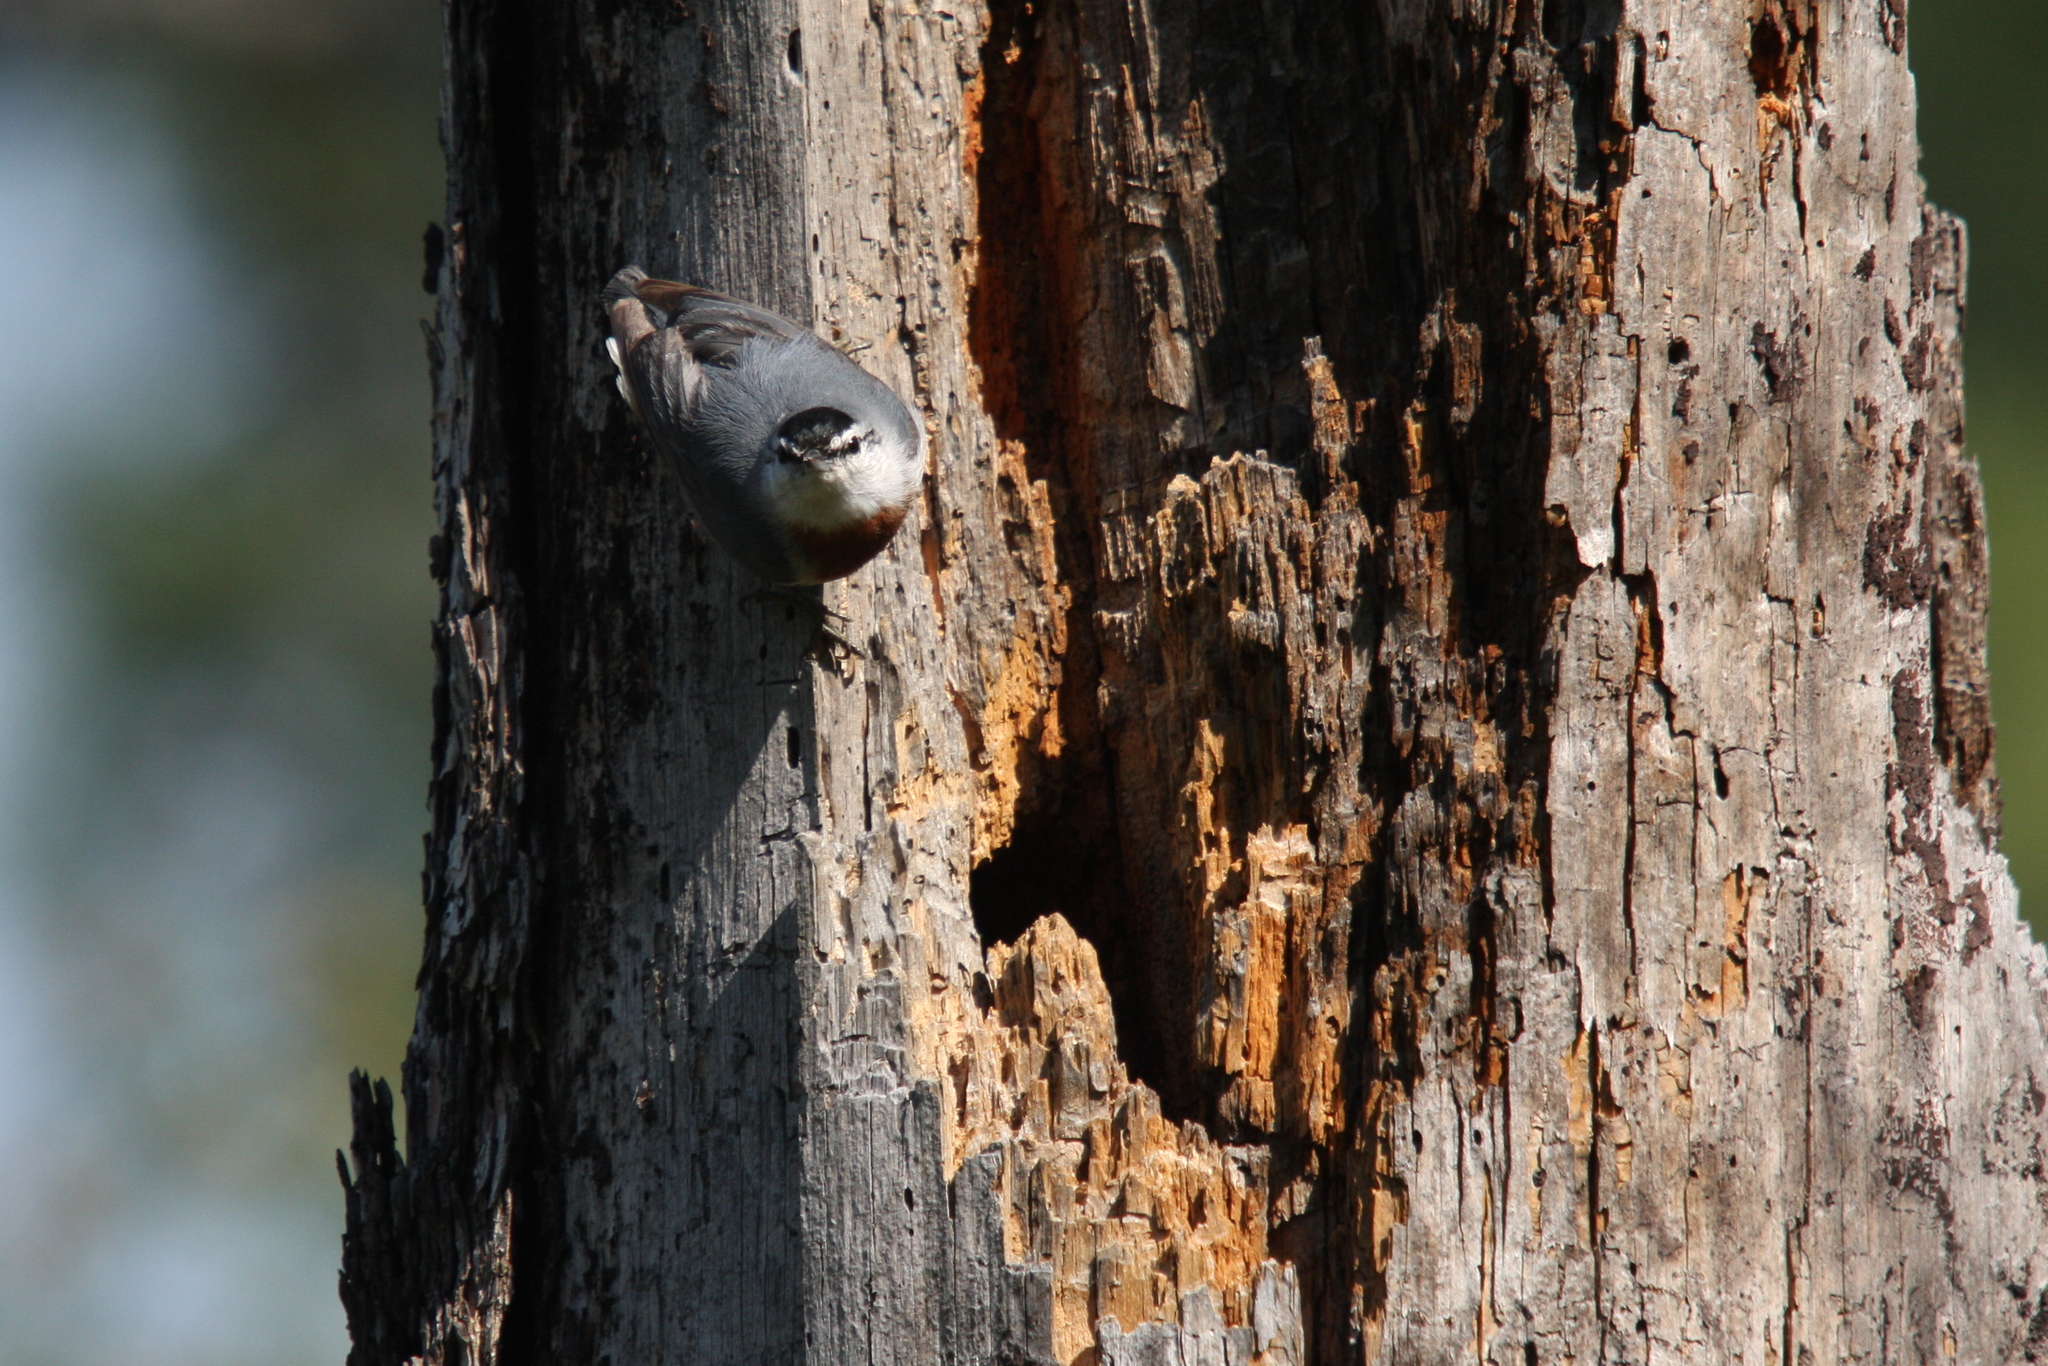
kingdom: Animalia
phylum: Chordata
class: Aves
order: Passeriformes
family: Sittidae
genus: Sitta
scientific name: Sitta krueperi
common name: Krüper's nuthatch
